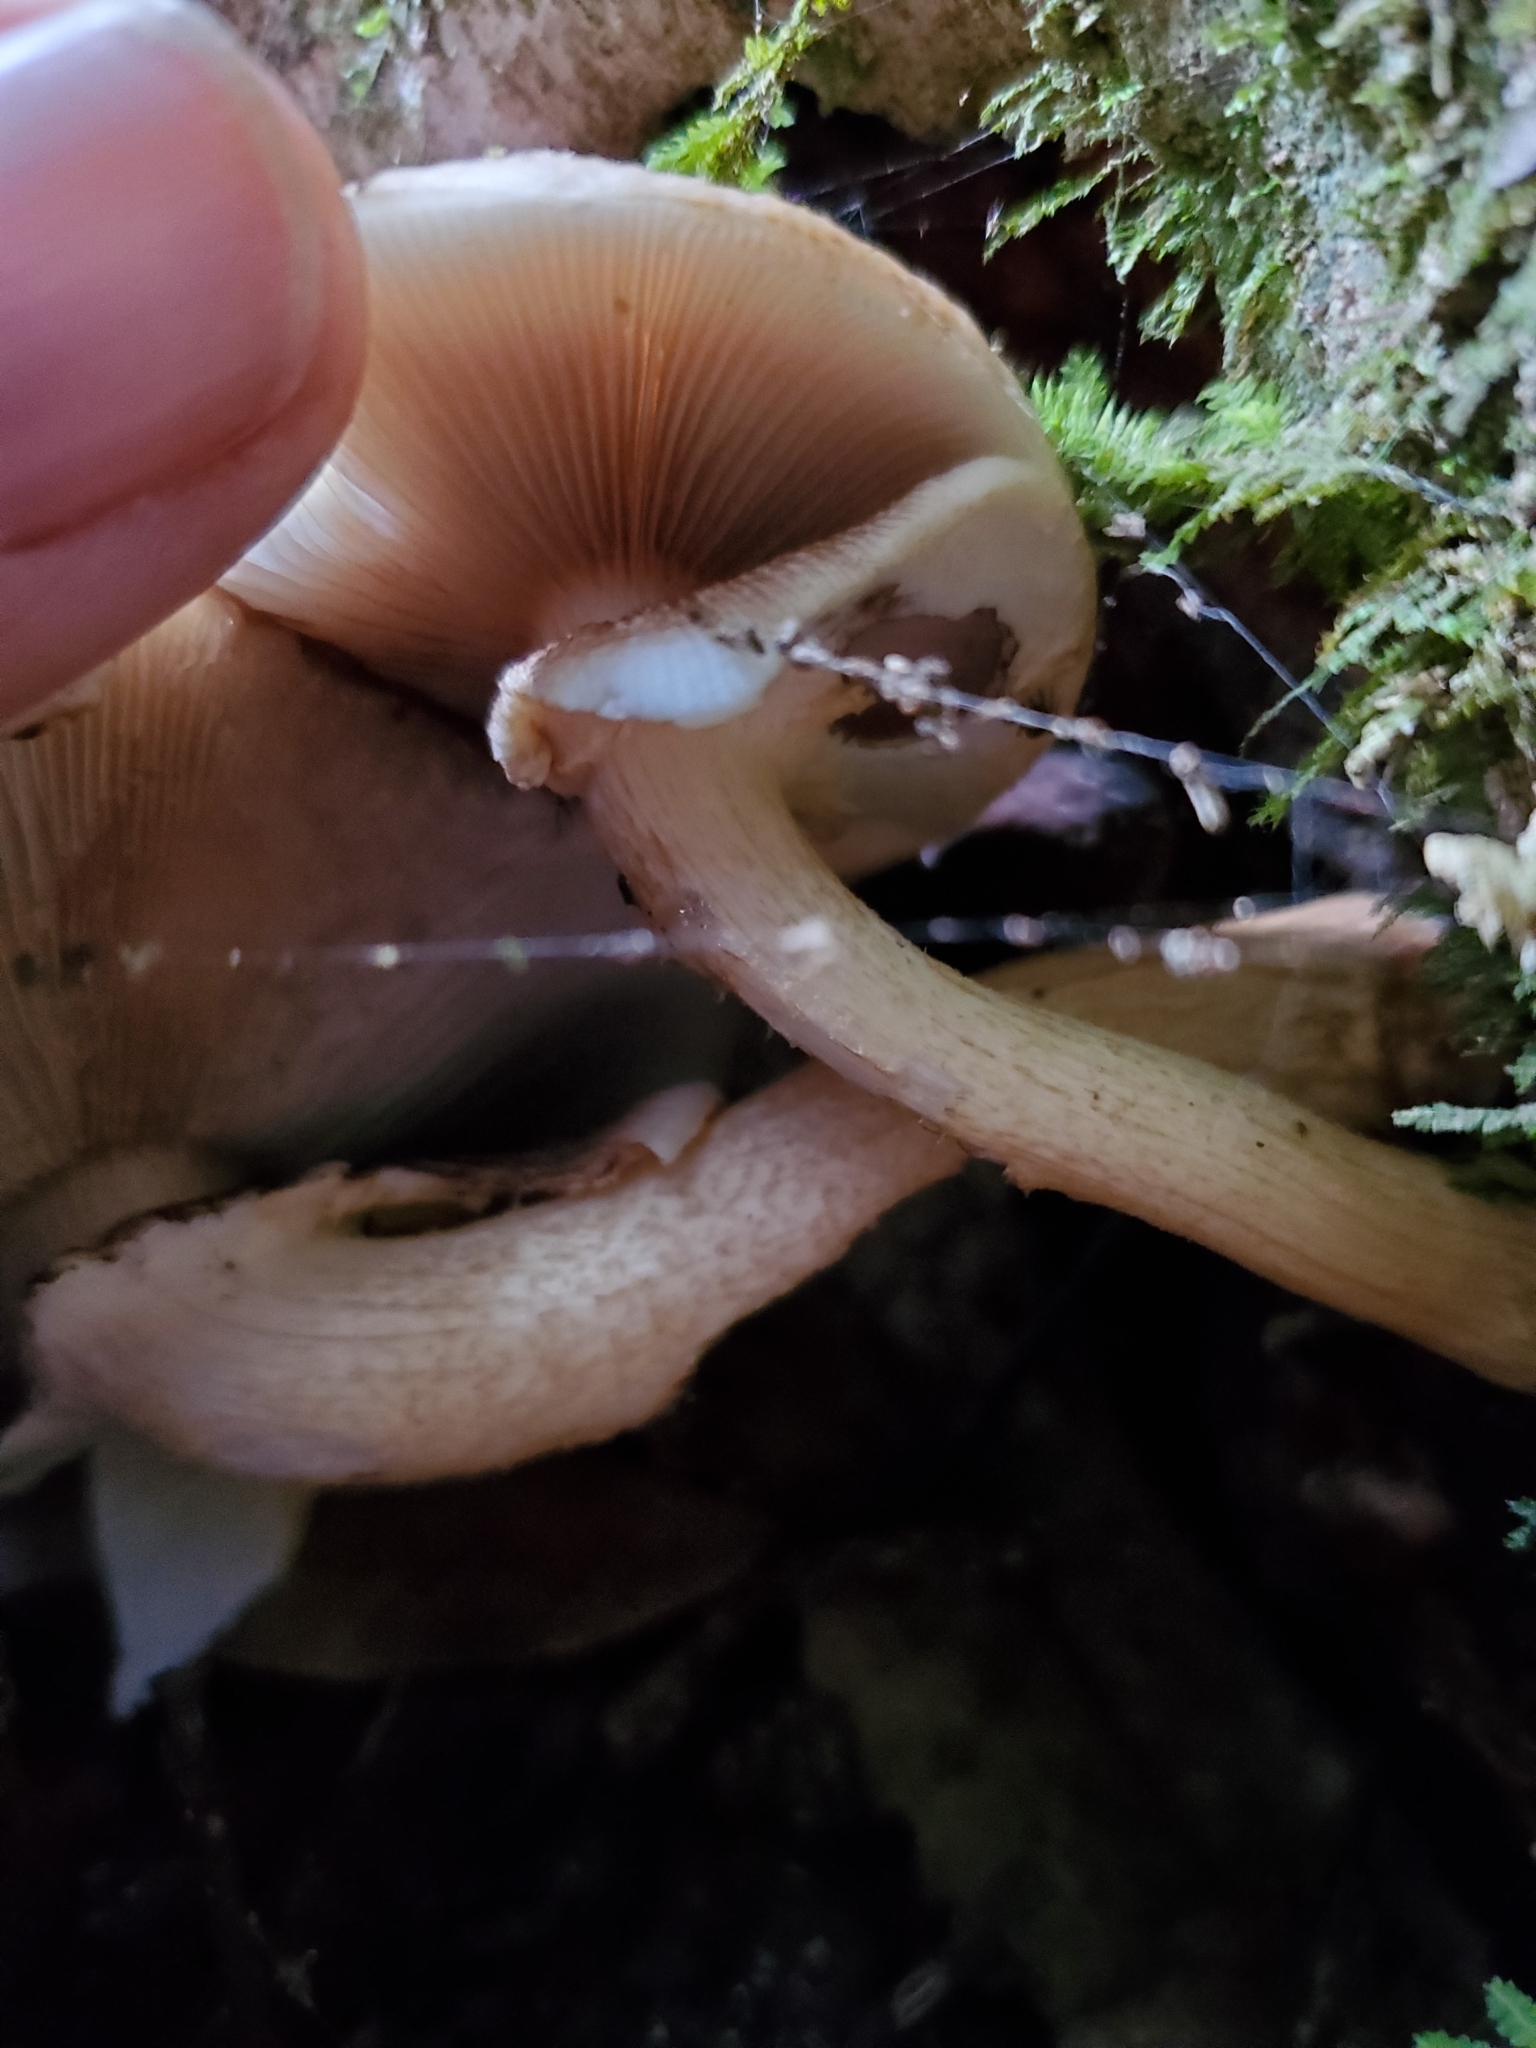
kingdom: Fungi
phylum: Basidiomycota
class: Agaricomycetes
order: Agaricales
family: Tubariaceae
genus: Cyclocybe
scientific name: Cyclocybe parasitica
